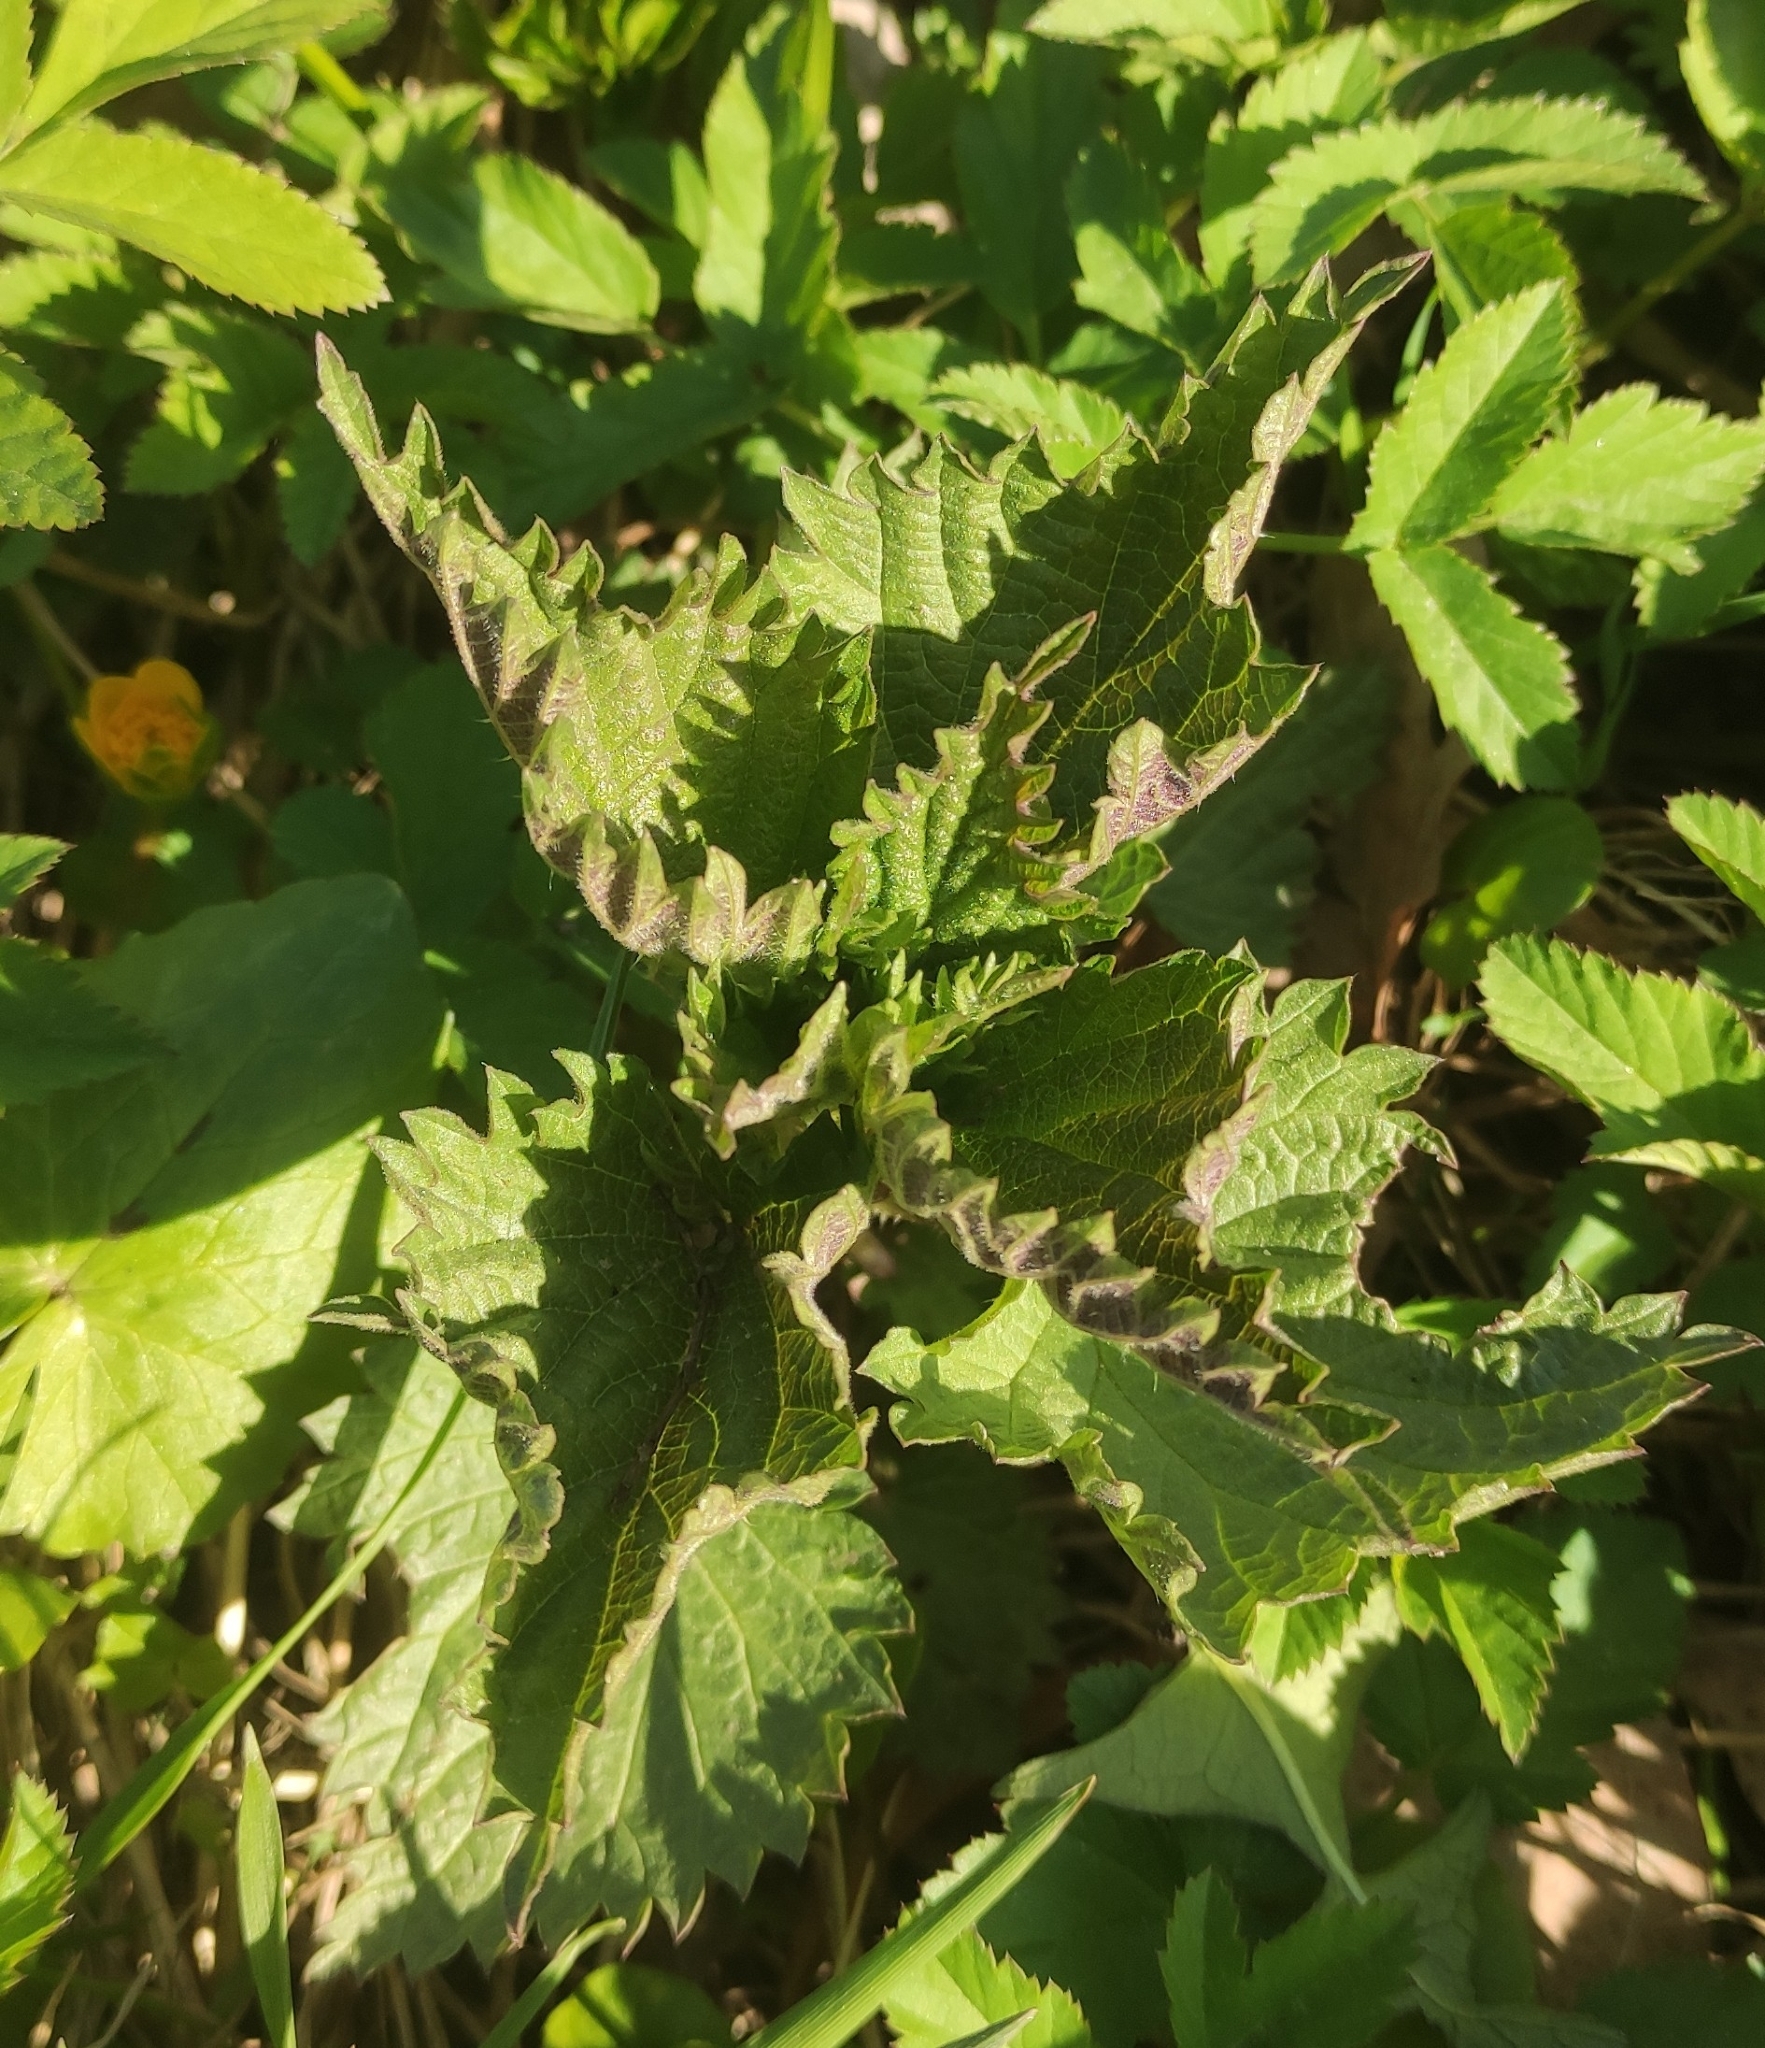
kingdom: Plantae
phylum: Tracheophyta
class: Magnoliopsida
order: Rosales
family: Urticaceae
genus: Urtica
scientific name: Urtica dioica
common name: Common nettle
